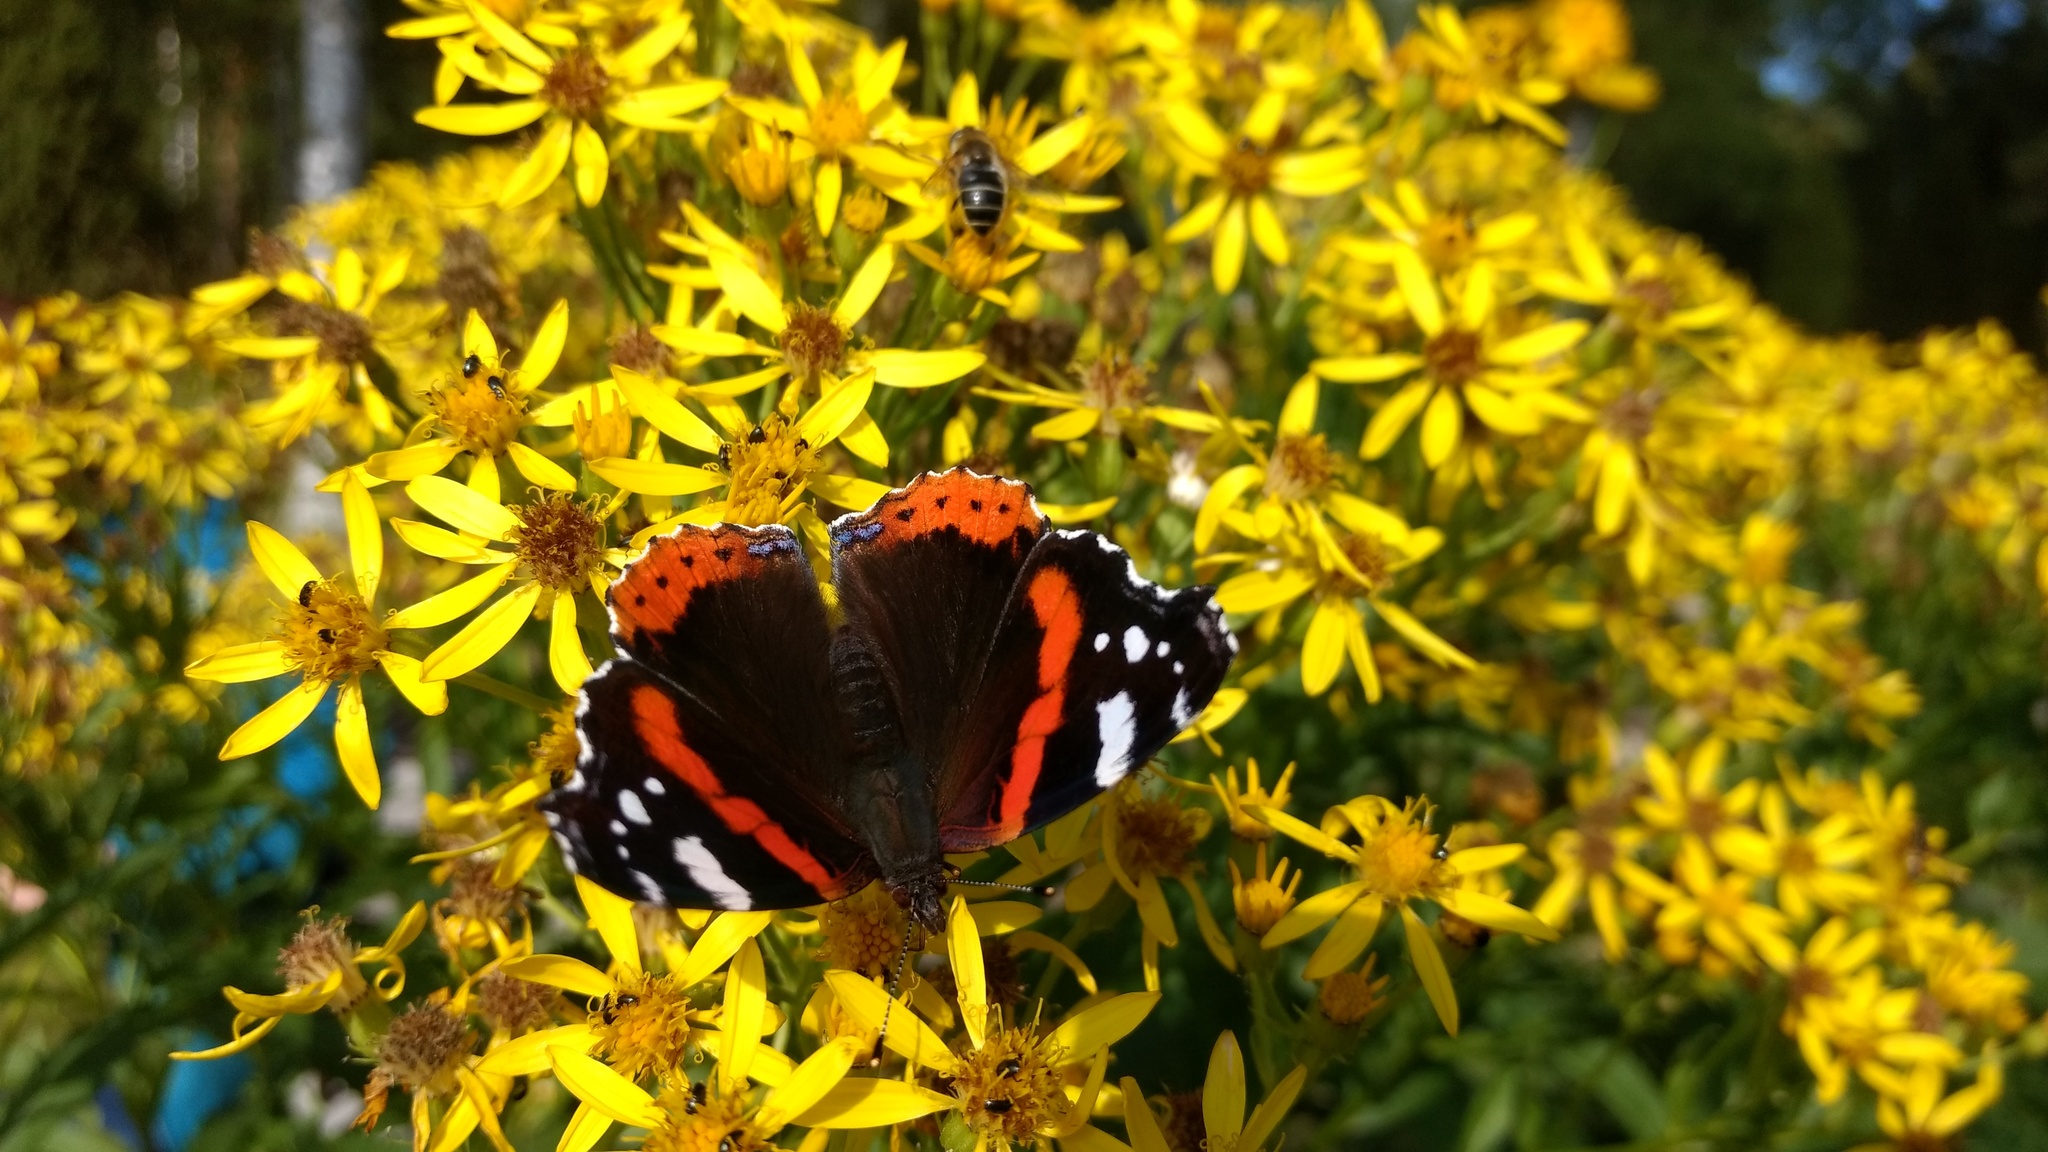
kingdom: Animalia
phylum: Arthropoda
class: Insecta
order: Lepidoptera
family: Nymphalidae
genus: Vanessa
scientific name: Vanessa atalanta
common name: Red admiral
